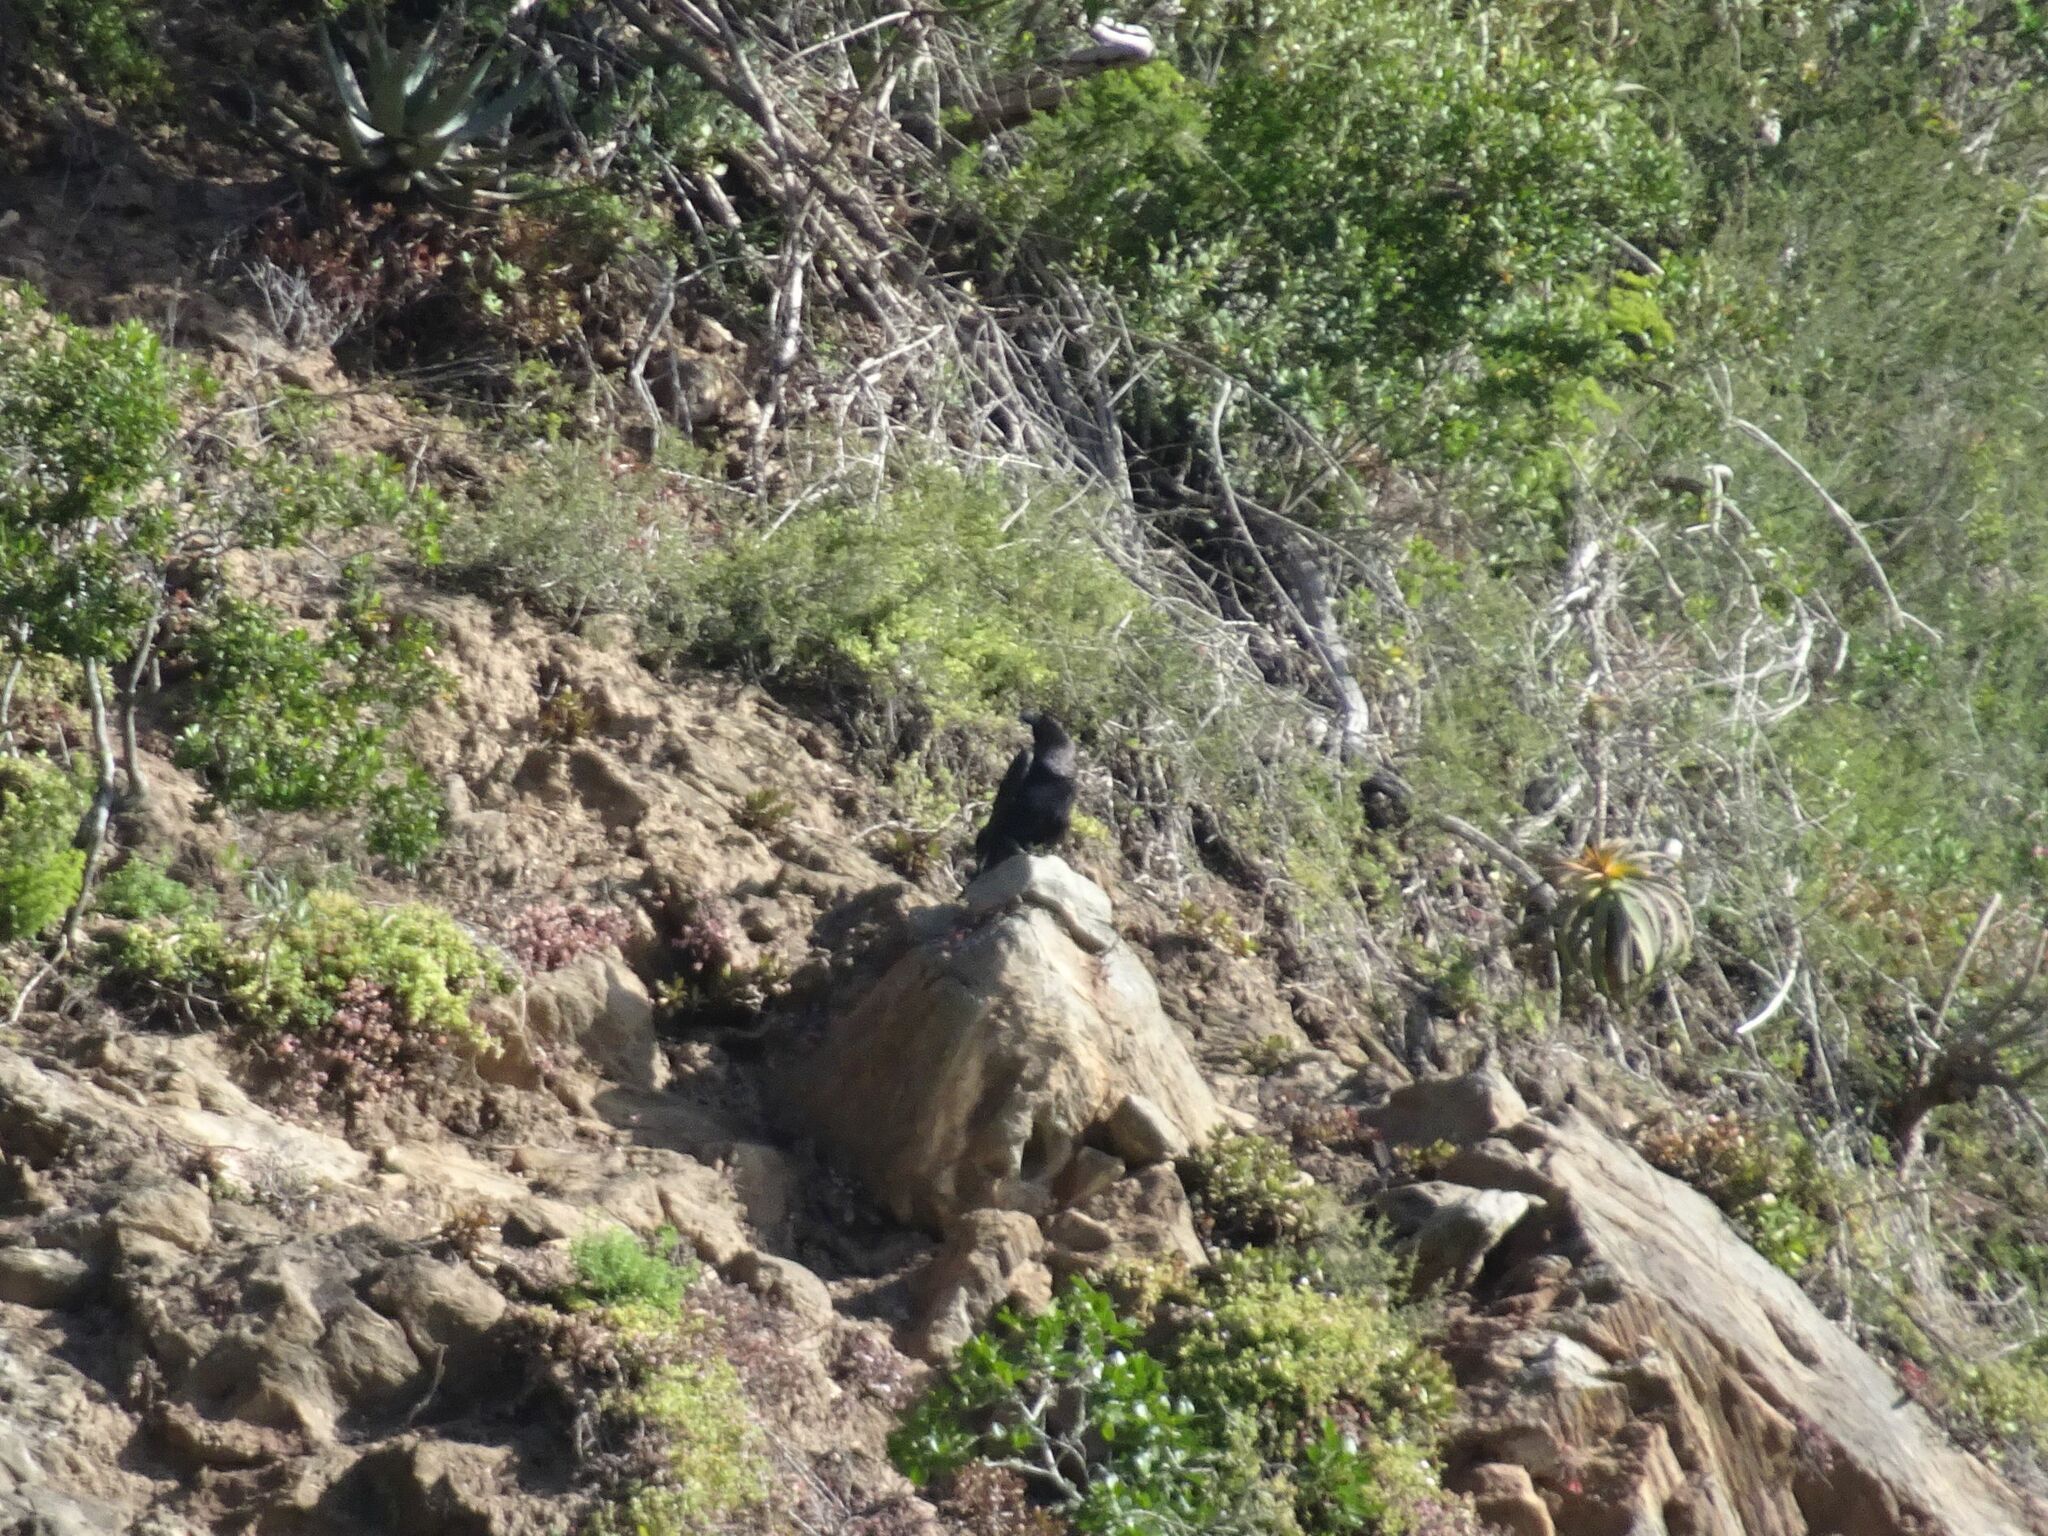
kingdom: Animalia
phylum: Chordata
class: Aves
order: Passeriformes
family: Corvidae
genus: Corvus
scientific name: Corvus albicollis
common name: White-necked raven
